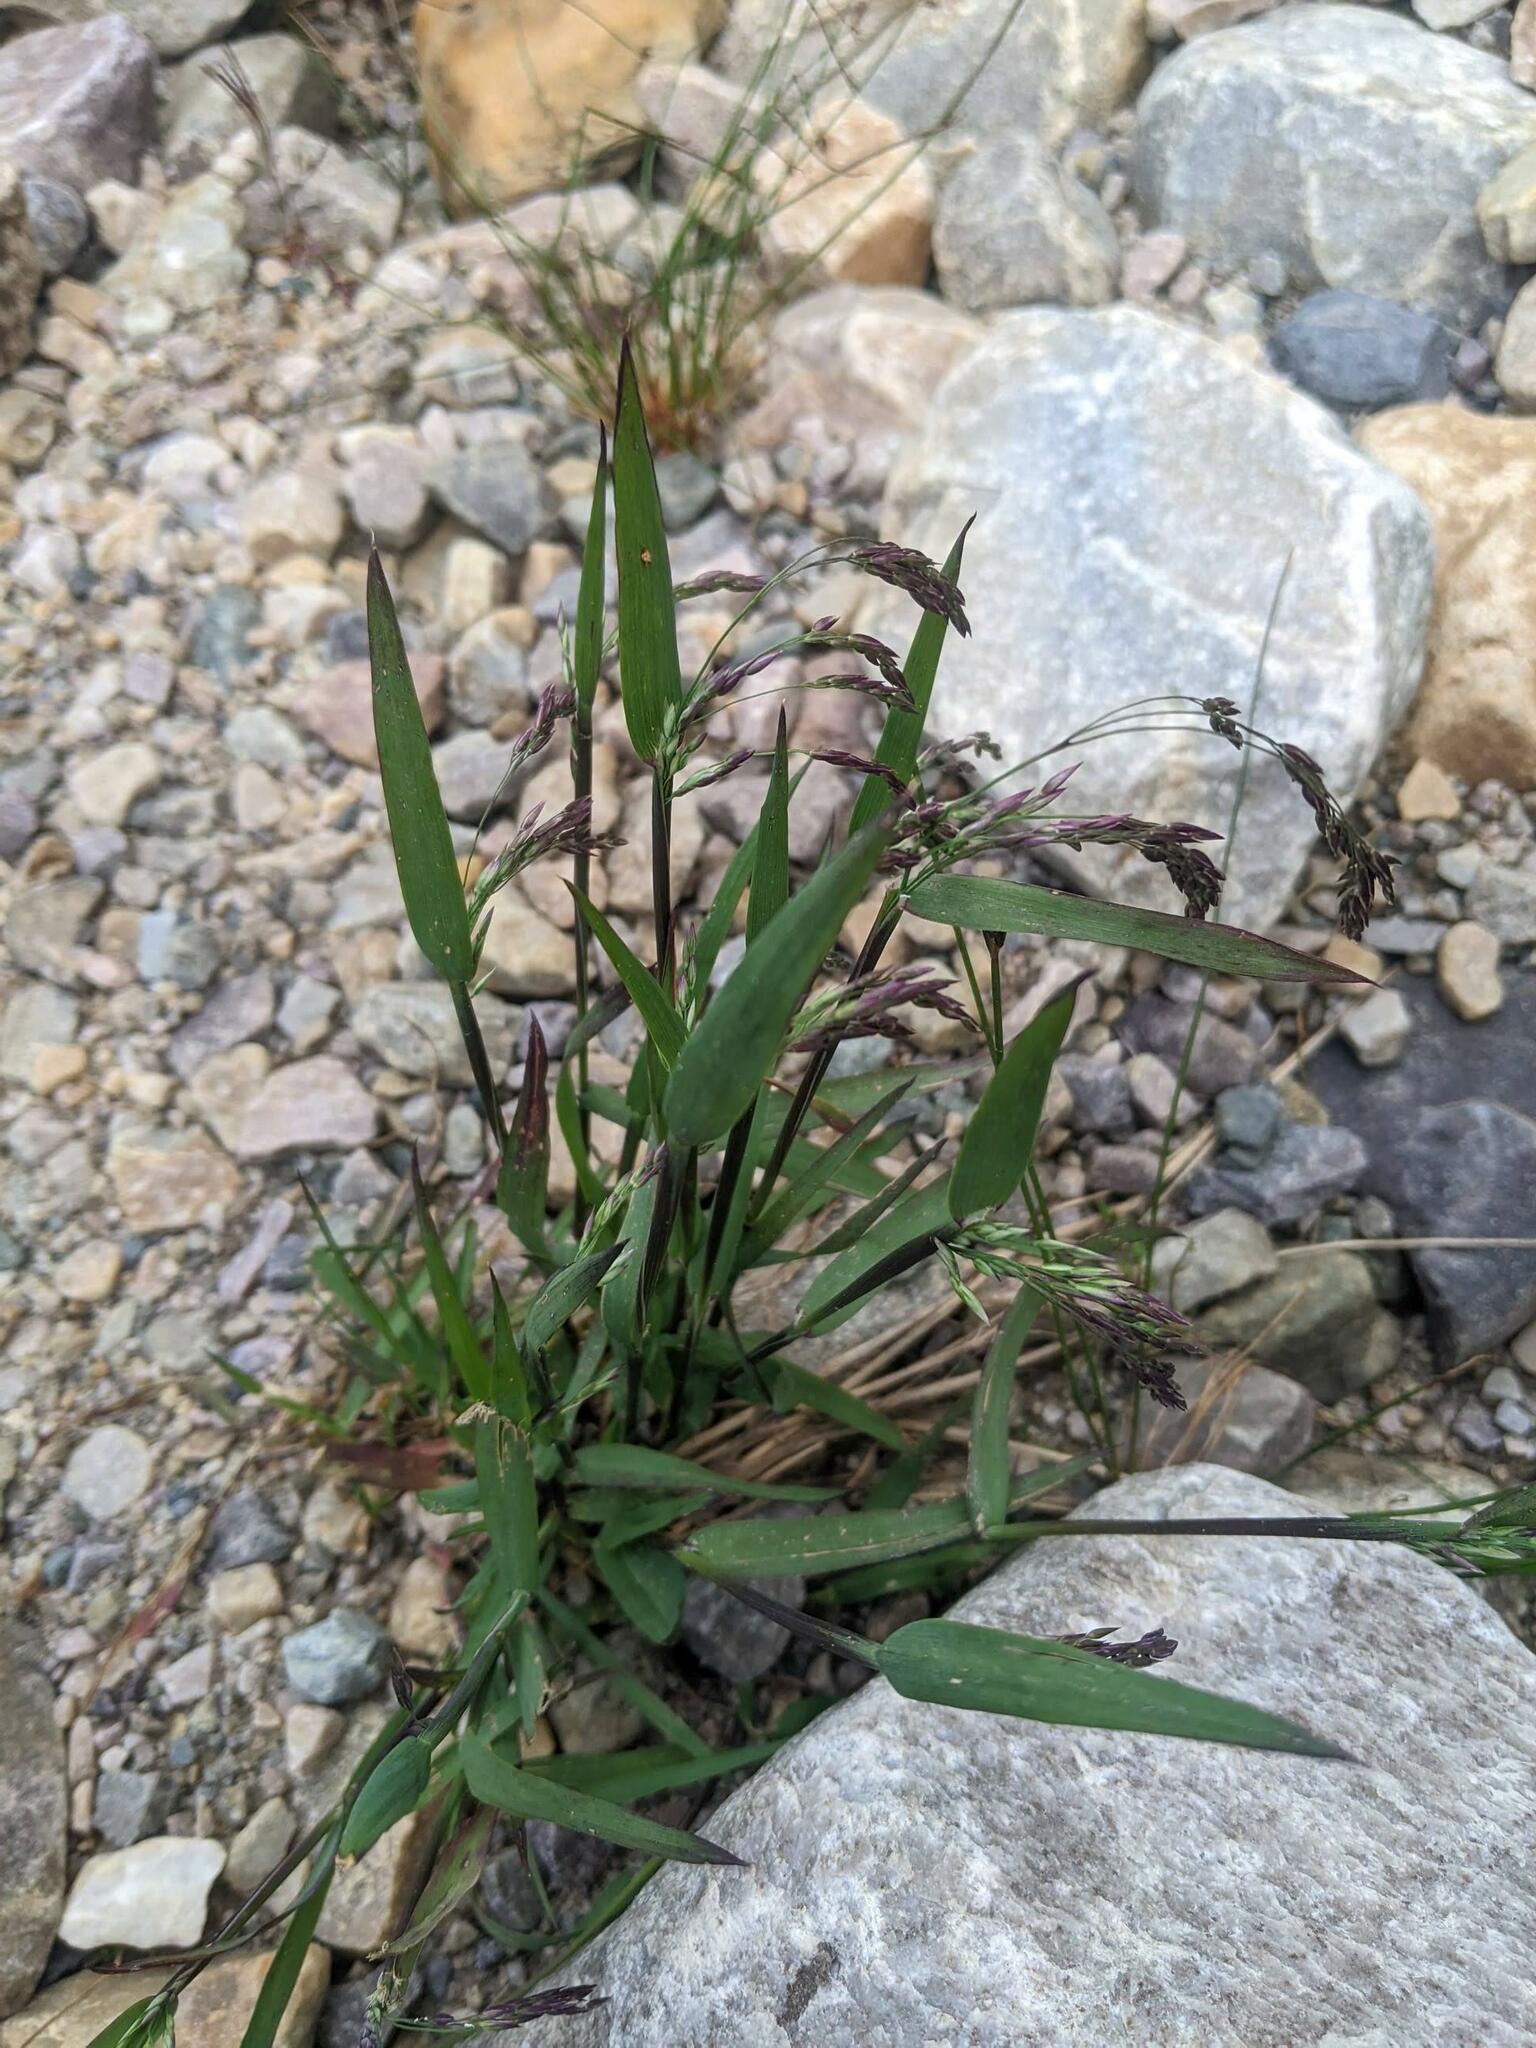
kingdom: Plantae
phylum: Tracheophyta
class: Liliopsida
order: Poales
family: Poaceae
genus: Vahlodea
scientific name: Vahlodea atropurpurea
